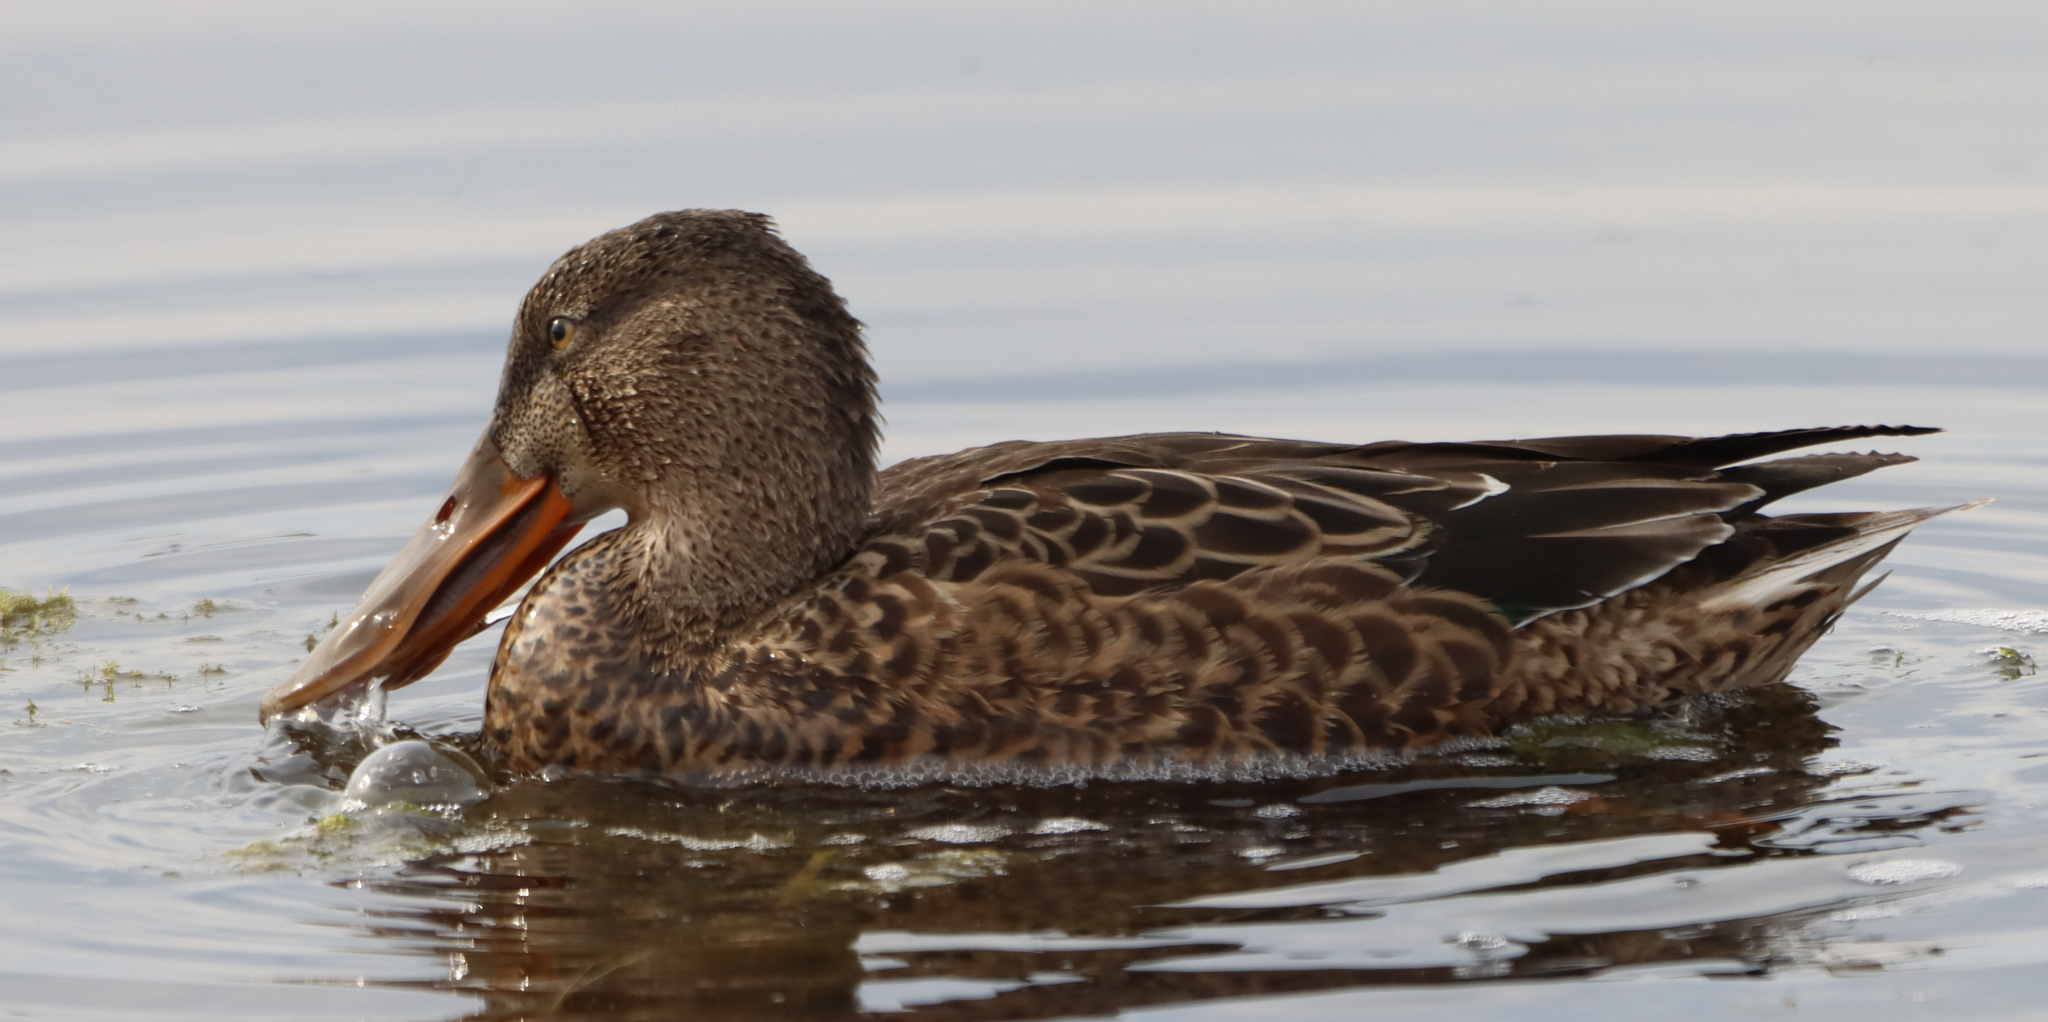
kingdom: Animalia
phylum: Chordata
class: Aves
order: Anseriformes
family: Anatidae
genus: Spatula
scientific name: Spatula clypeata
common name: Northern shoveler
